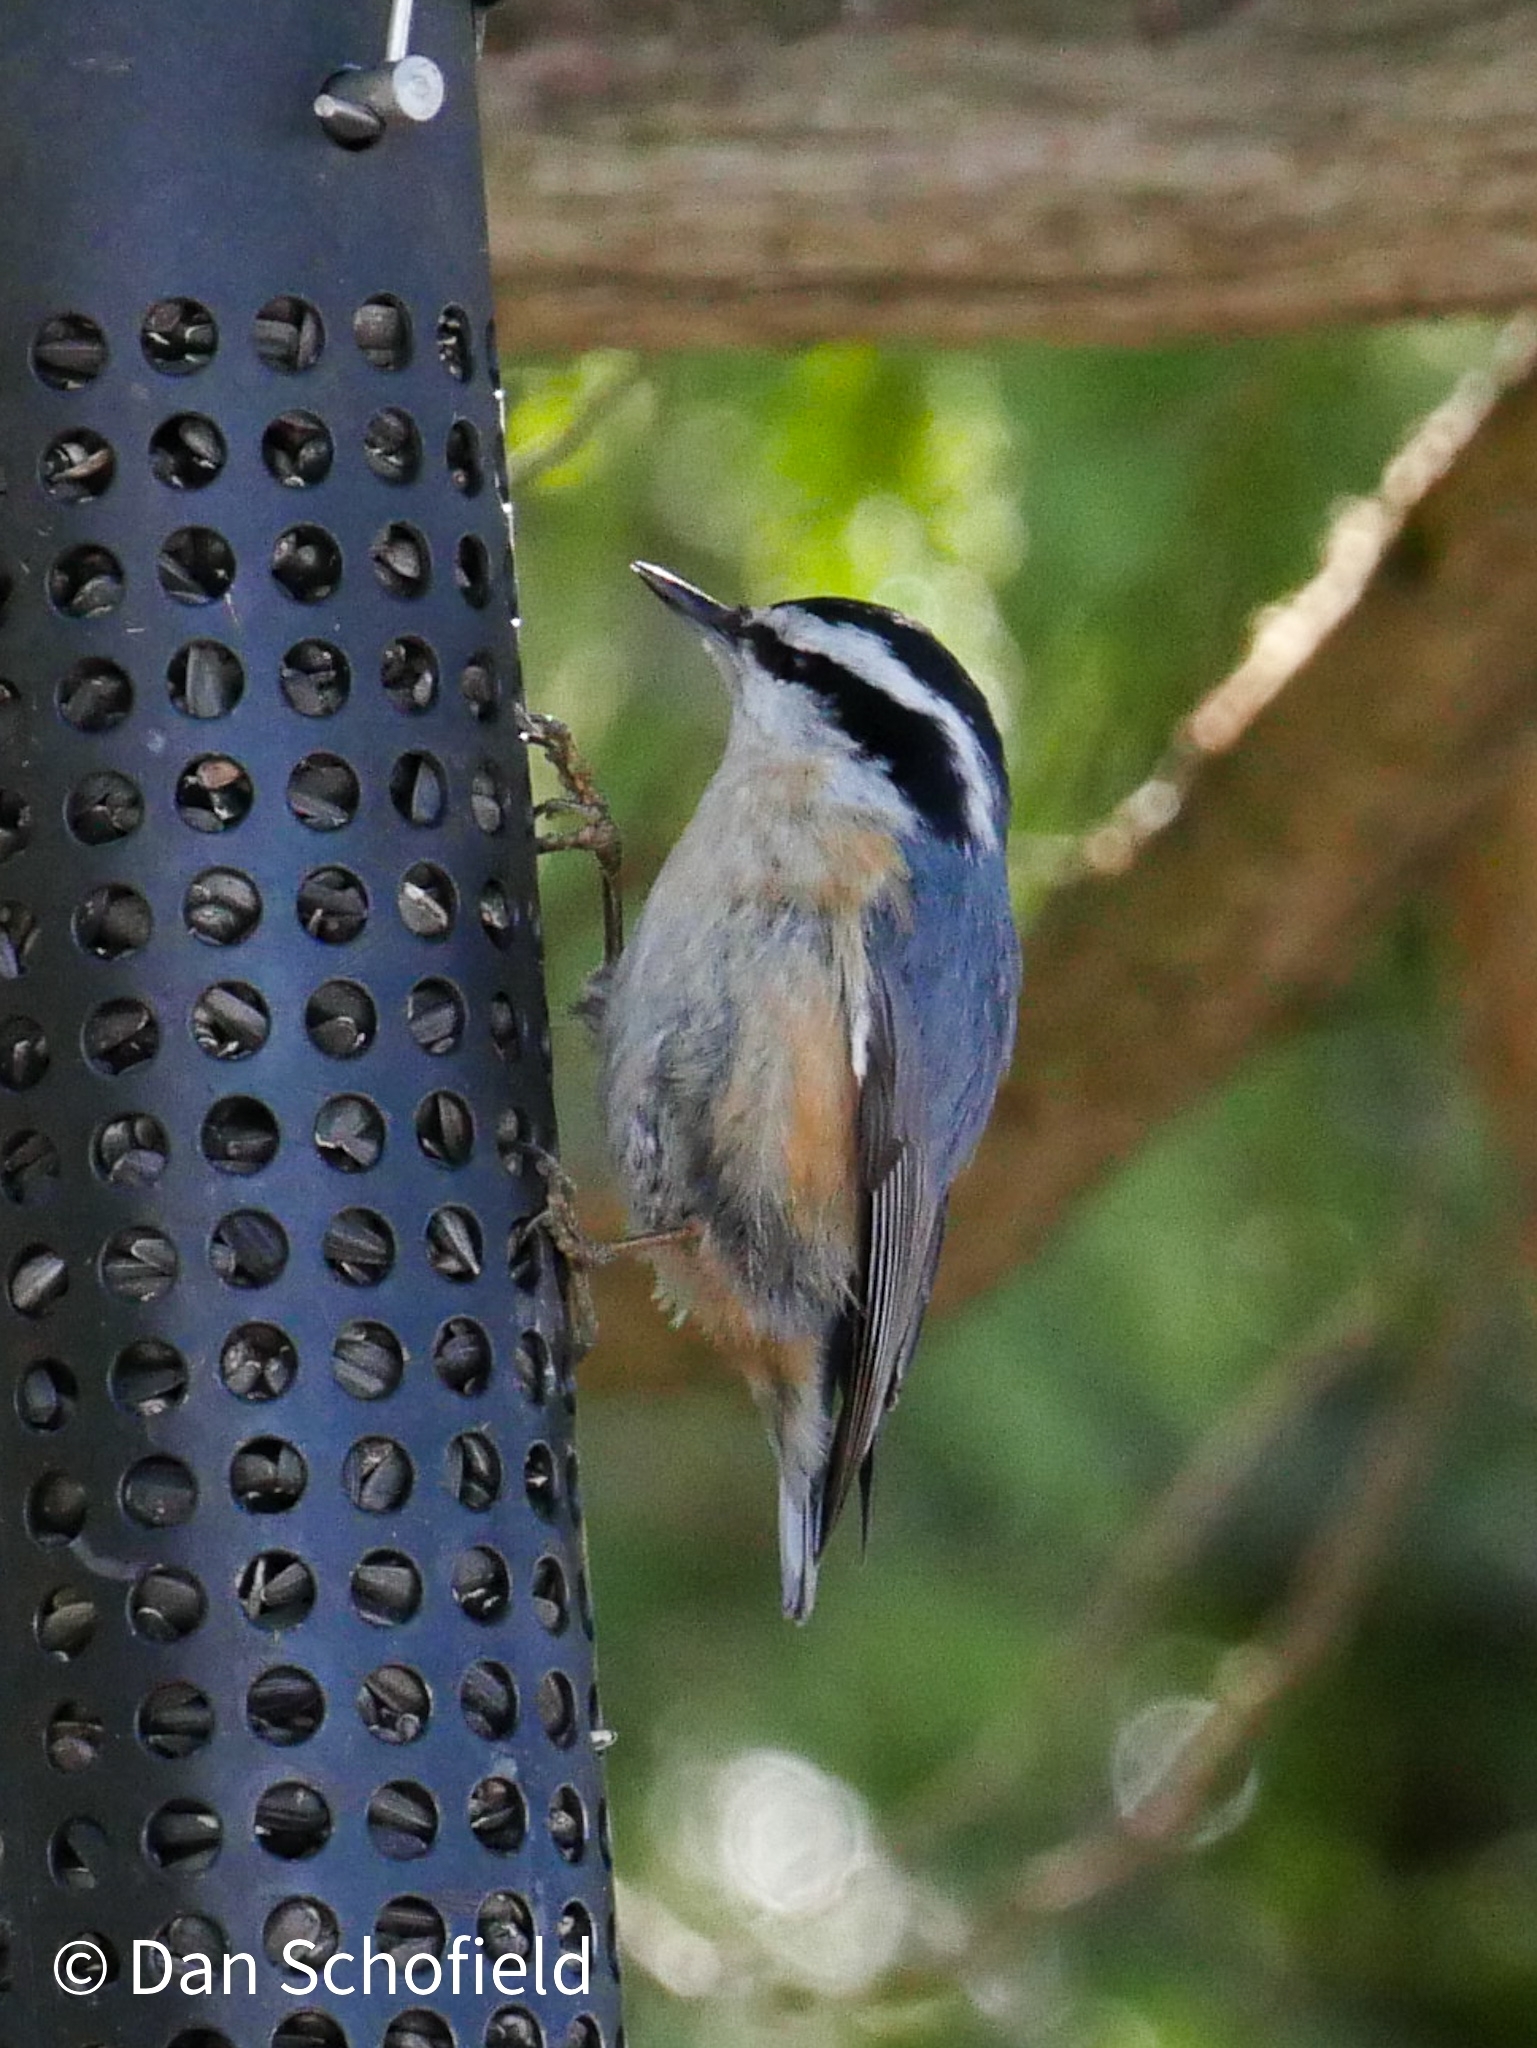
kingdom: Animalia
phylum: Chordata
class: Aves
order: Passeriformes
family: Sittidae
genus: Sitta
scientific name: Sitta canadensis
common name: Red-breasted nuthatch
